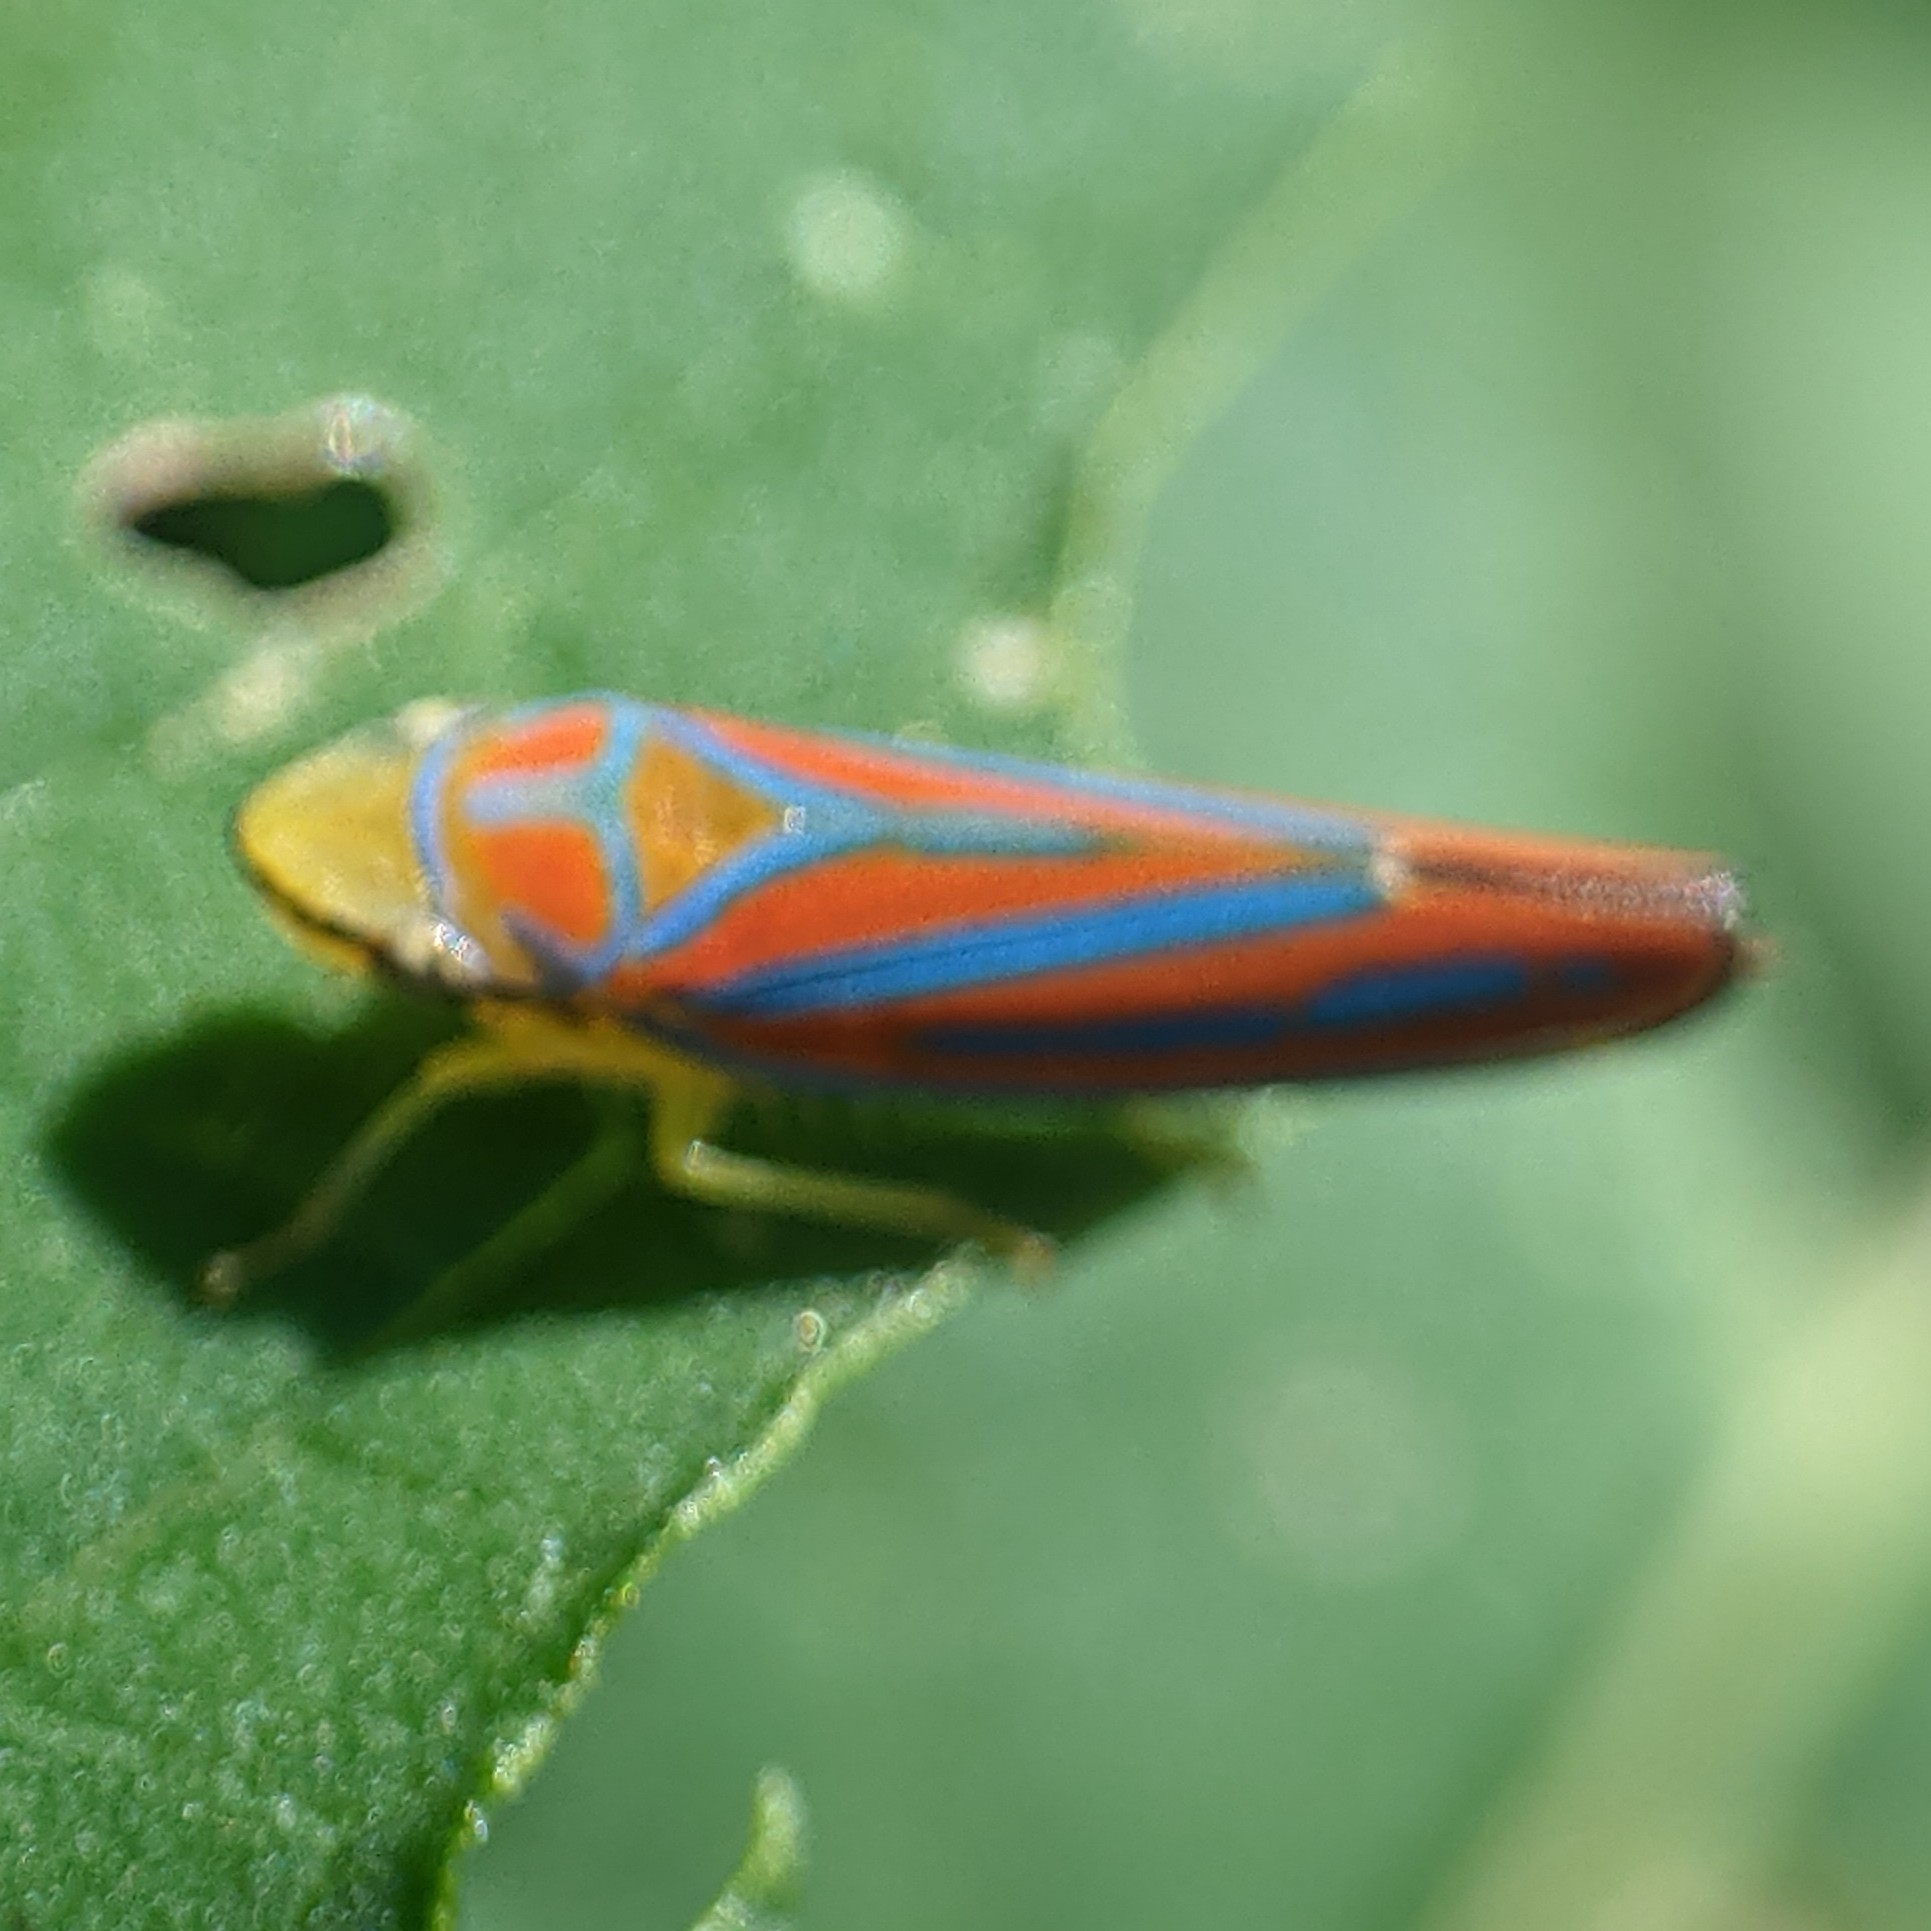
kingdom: Animalia
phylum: Arthropoda
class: Insecta
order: Hemiptera
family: Cicadellidae
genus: Graphocephala
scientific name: Graphocephala coccinea
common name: Candy-striped leafhopper
